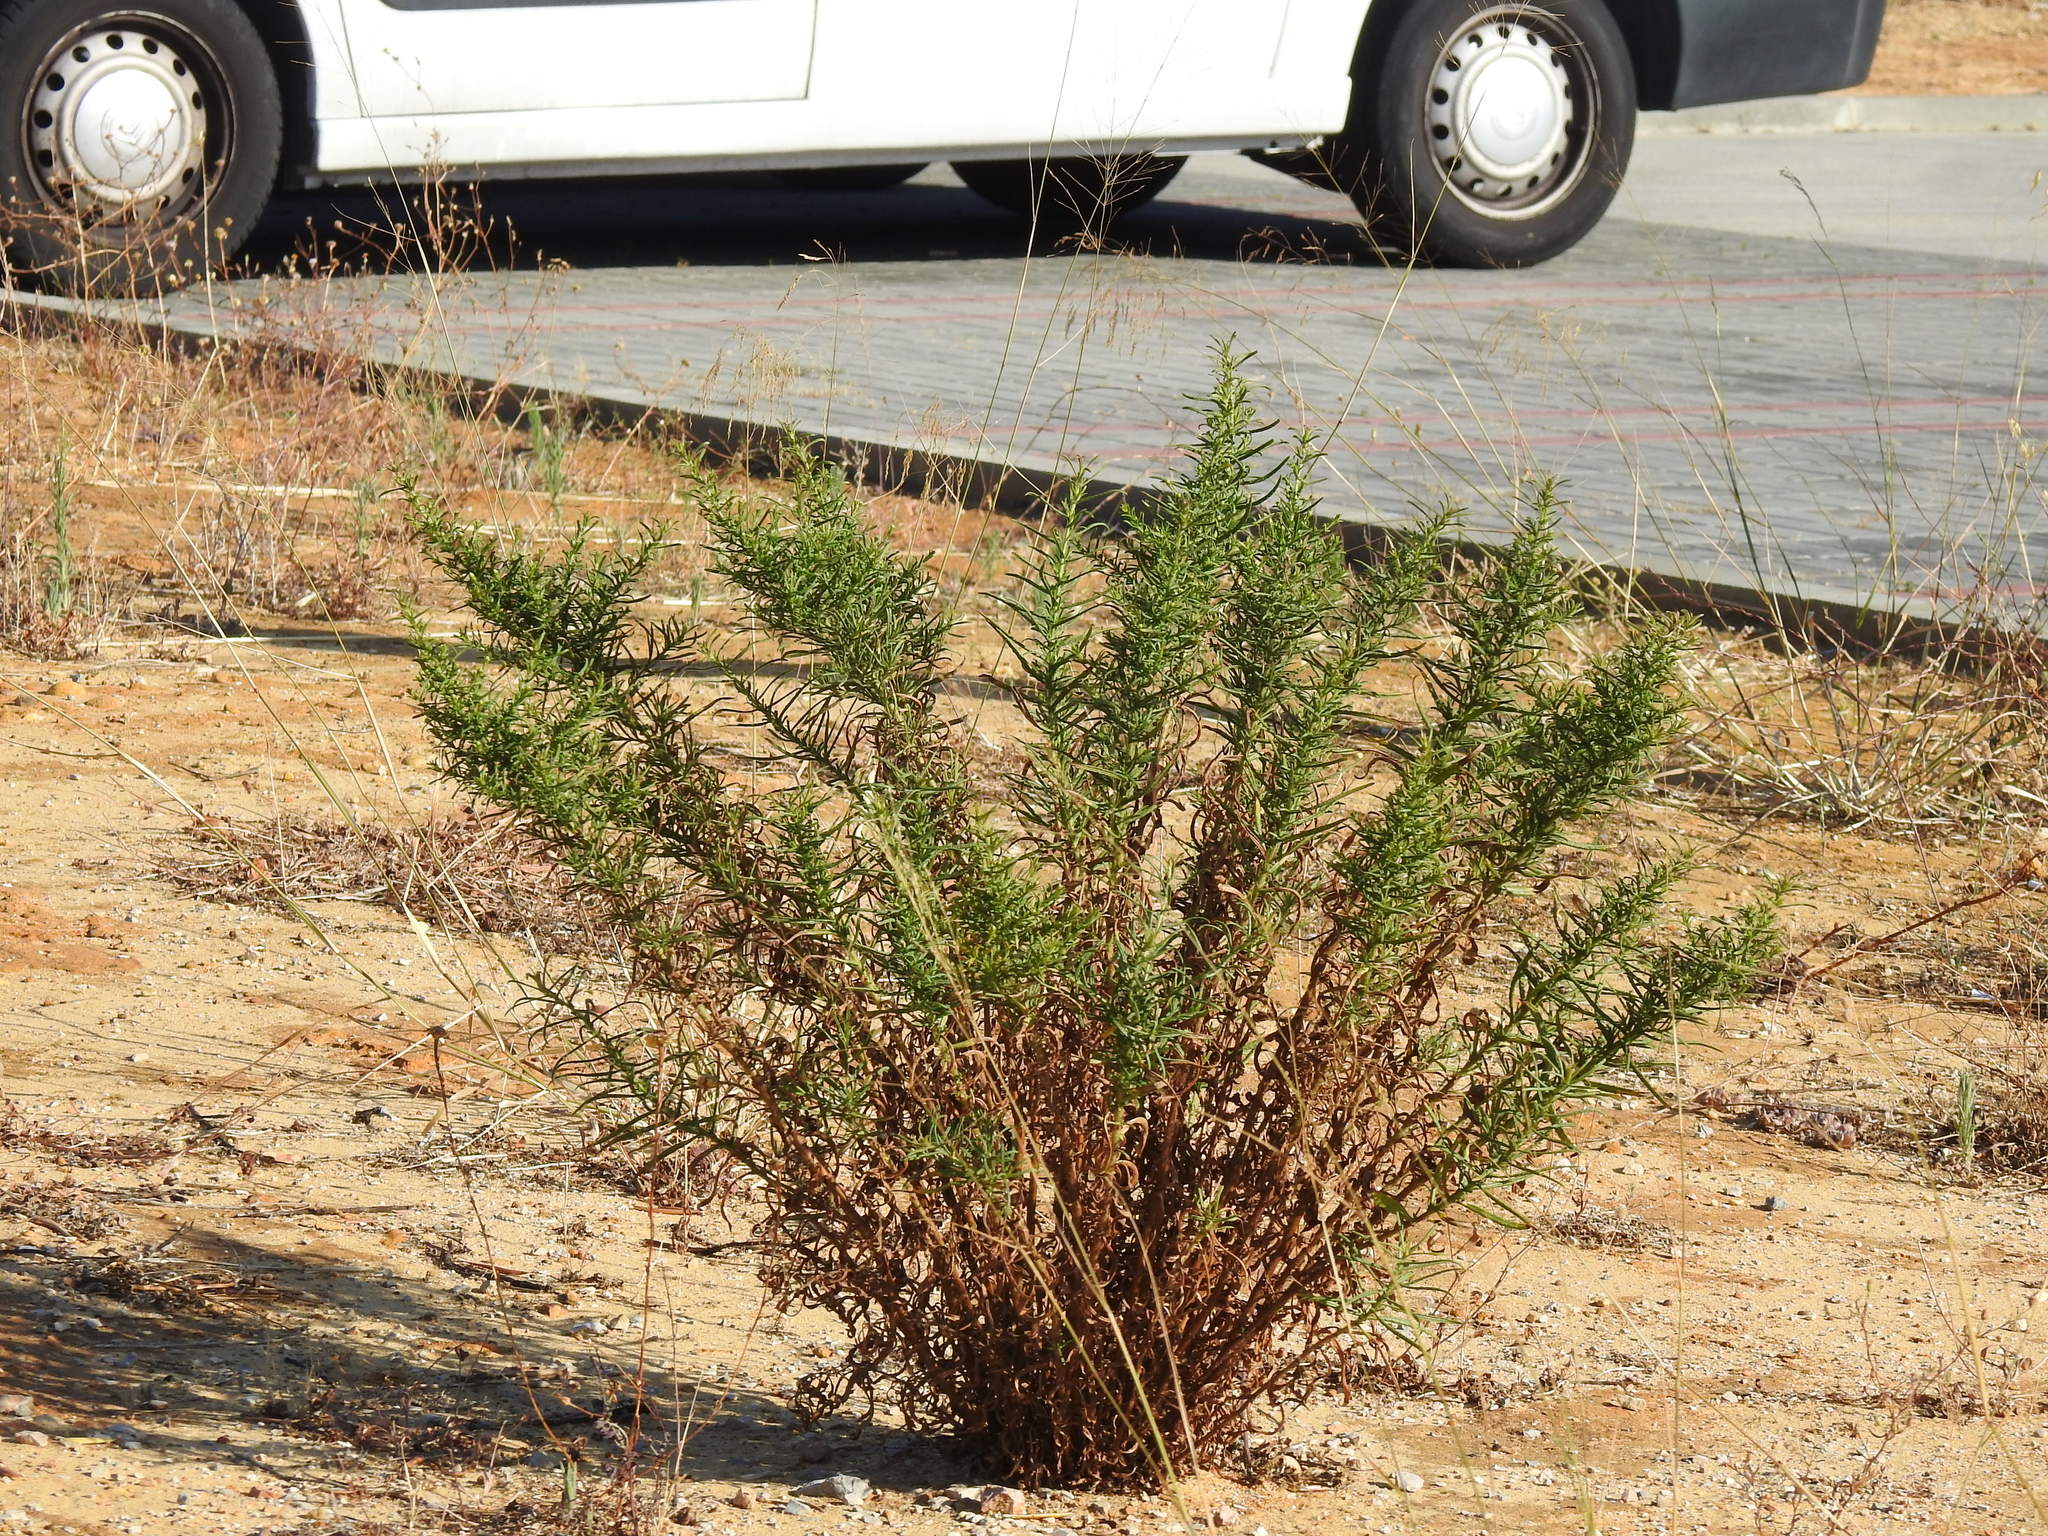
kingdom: Plantae
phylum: Tracheophyta
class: Magnoliopsida
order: Asterales
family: Asteraceae
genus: Dittrichia
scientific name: Dittrichia viscosa
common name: Woody fleabane
